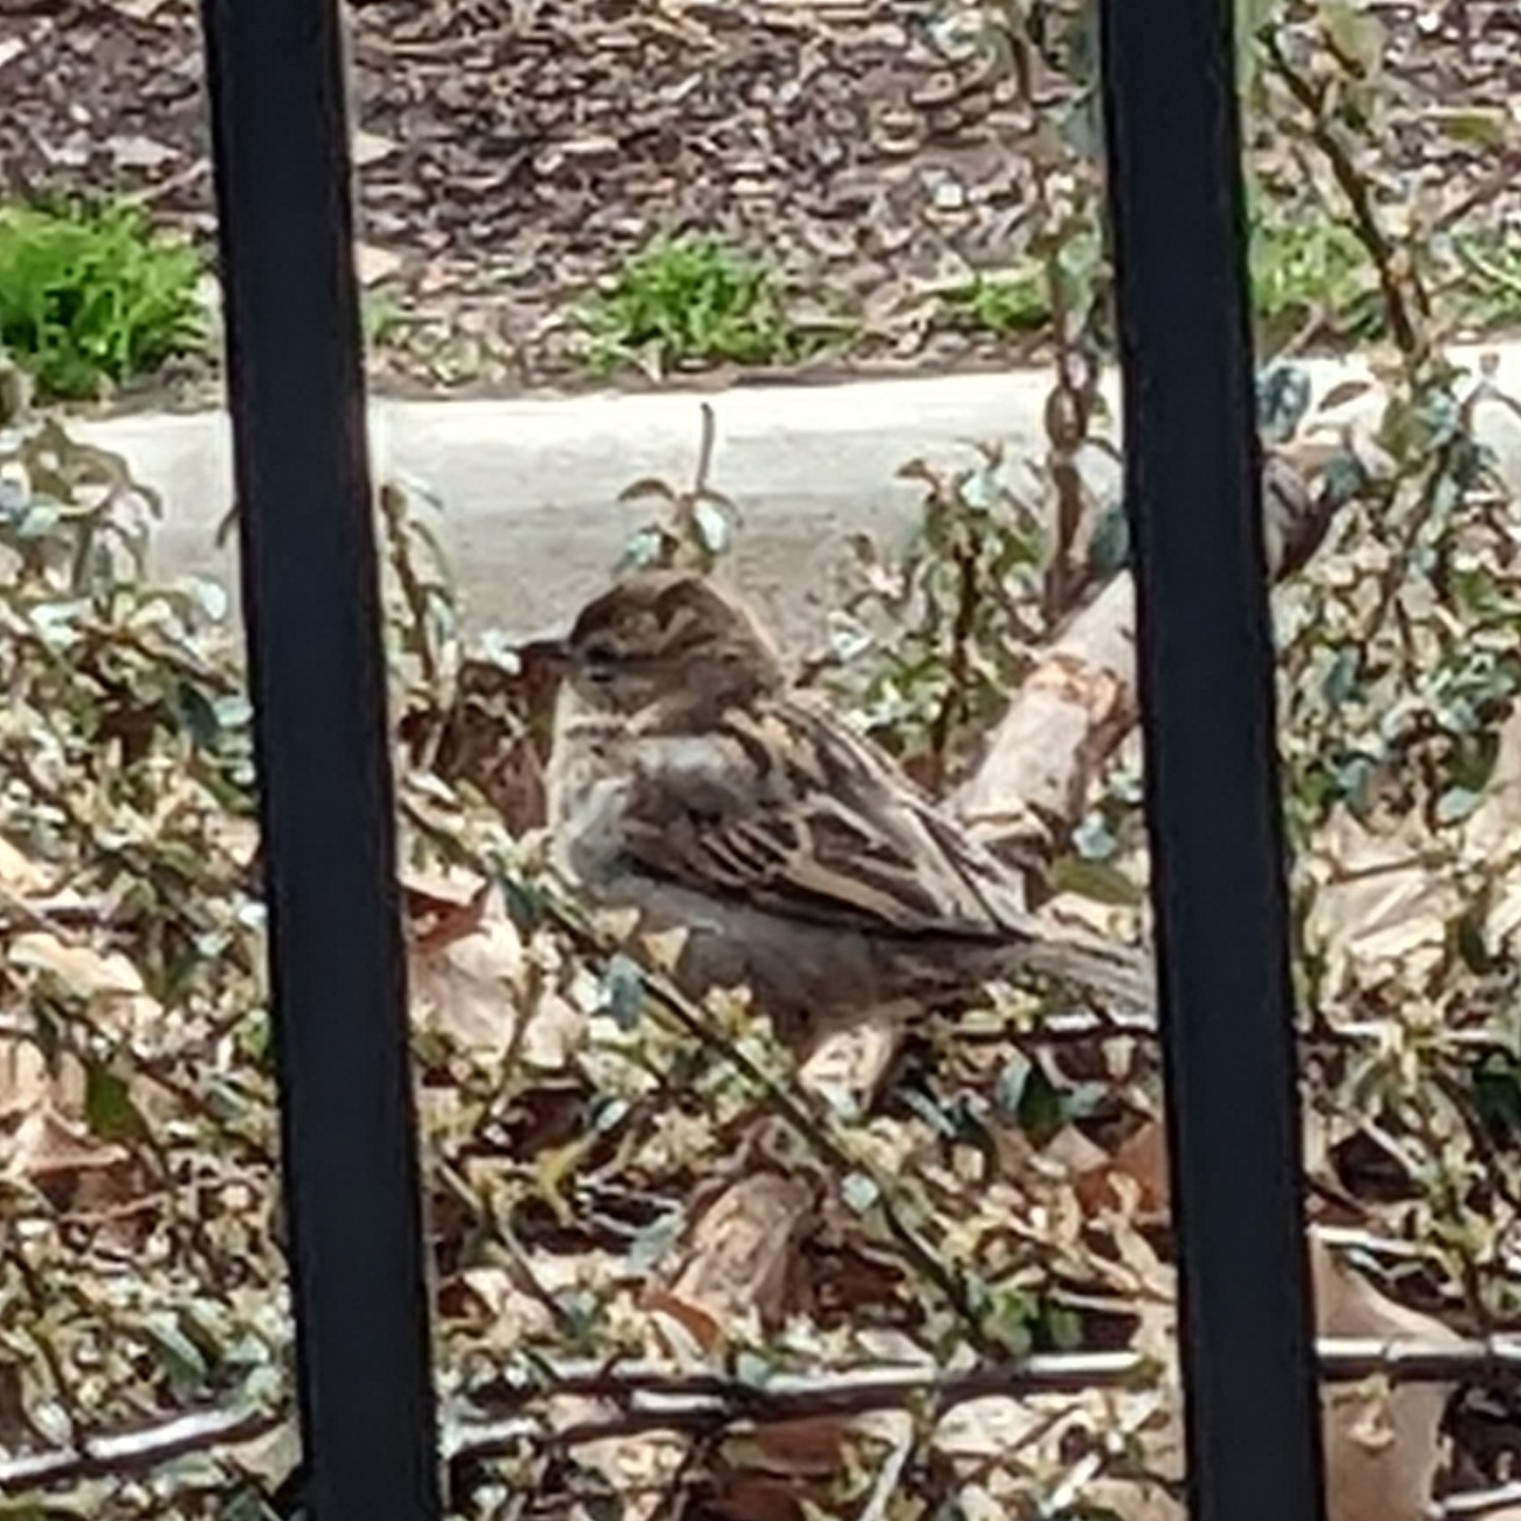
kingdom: Animalia
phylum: Chordata
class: Aves
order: Passeriformes
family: Passeridae
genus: Passer
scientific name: Passer domesticus
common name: House sparrow
